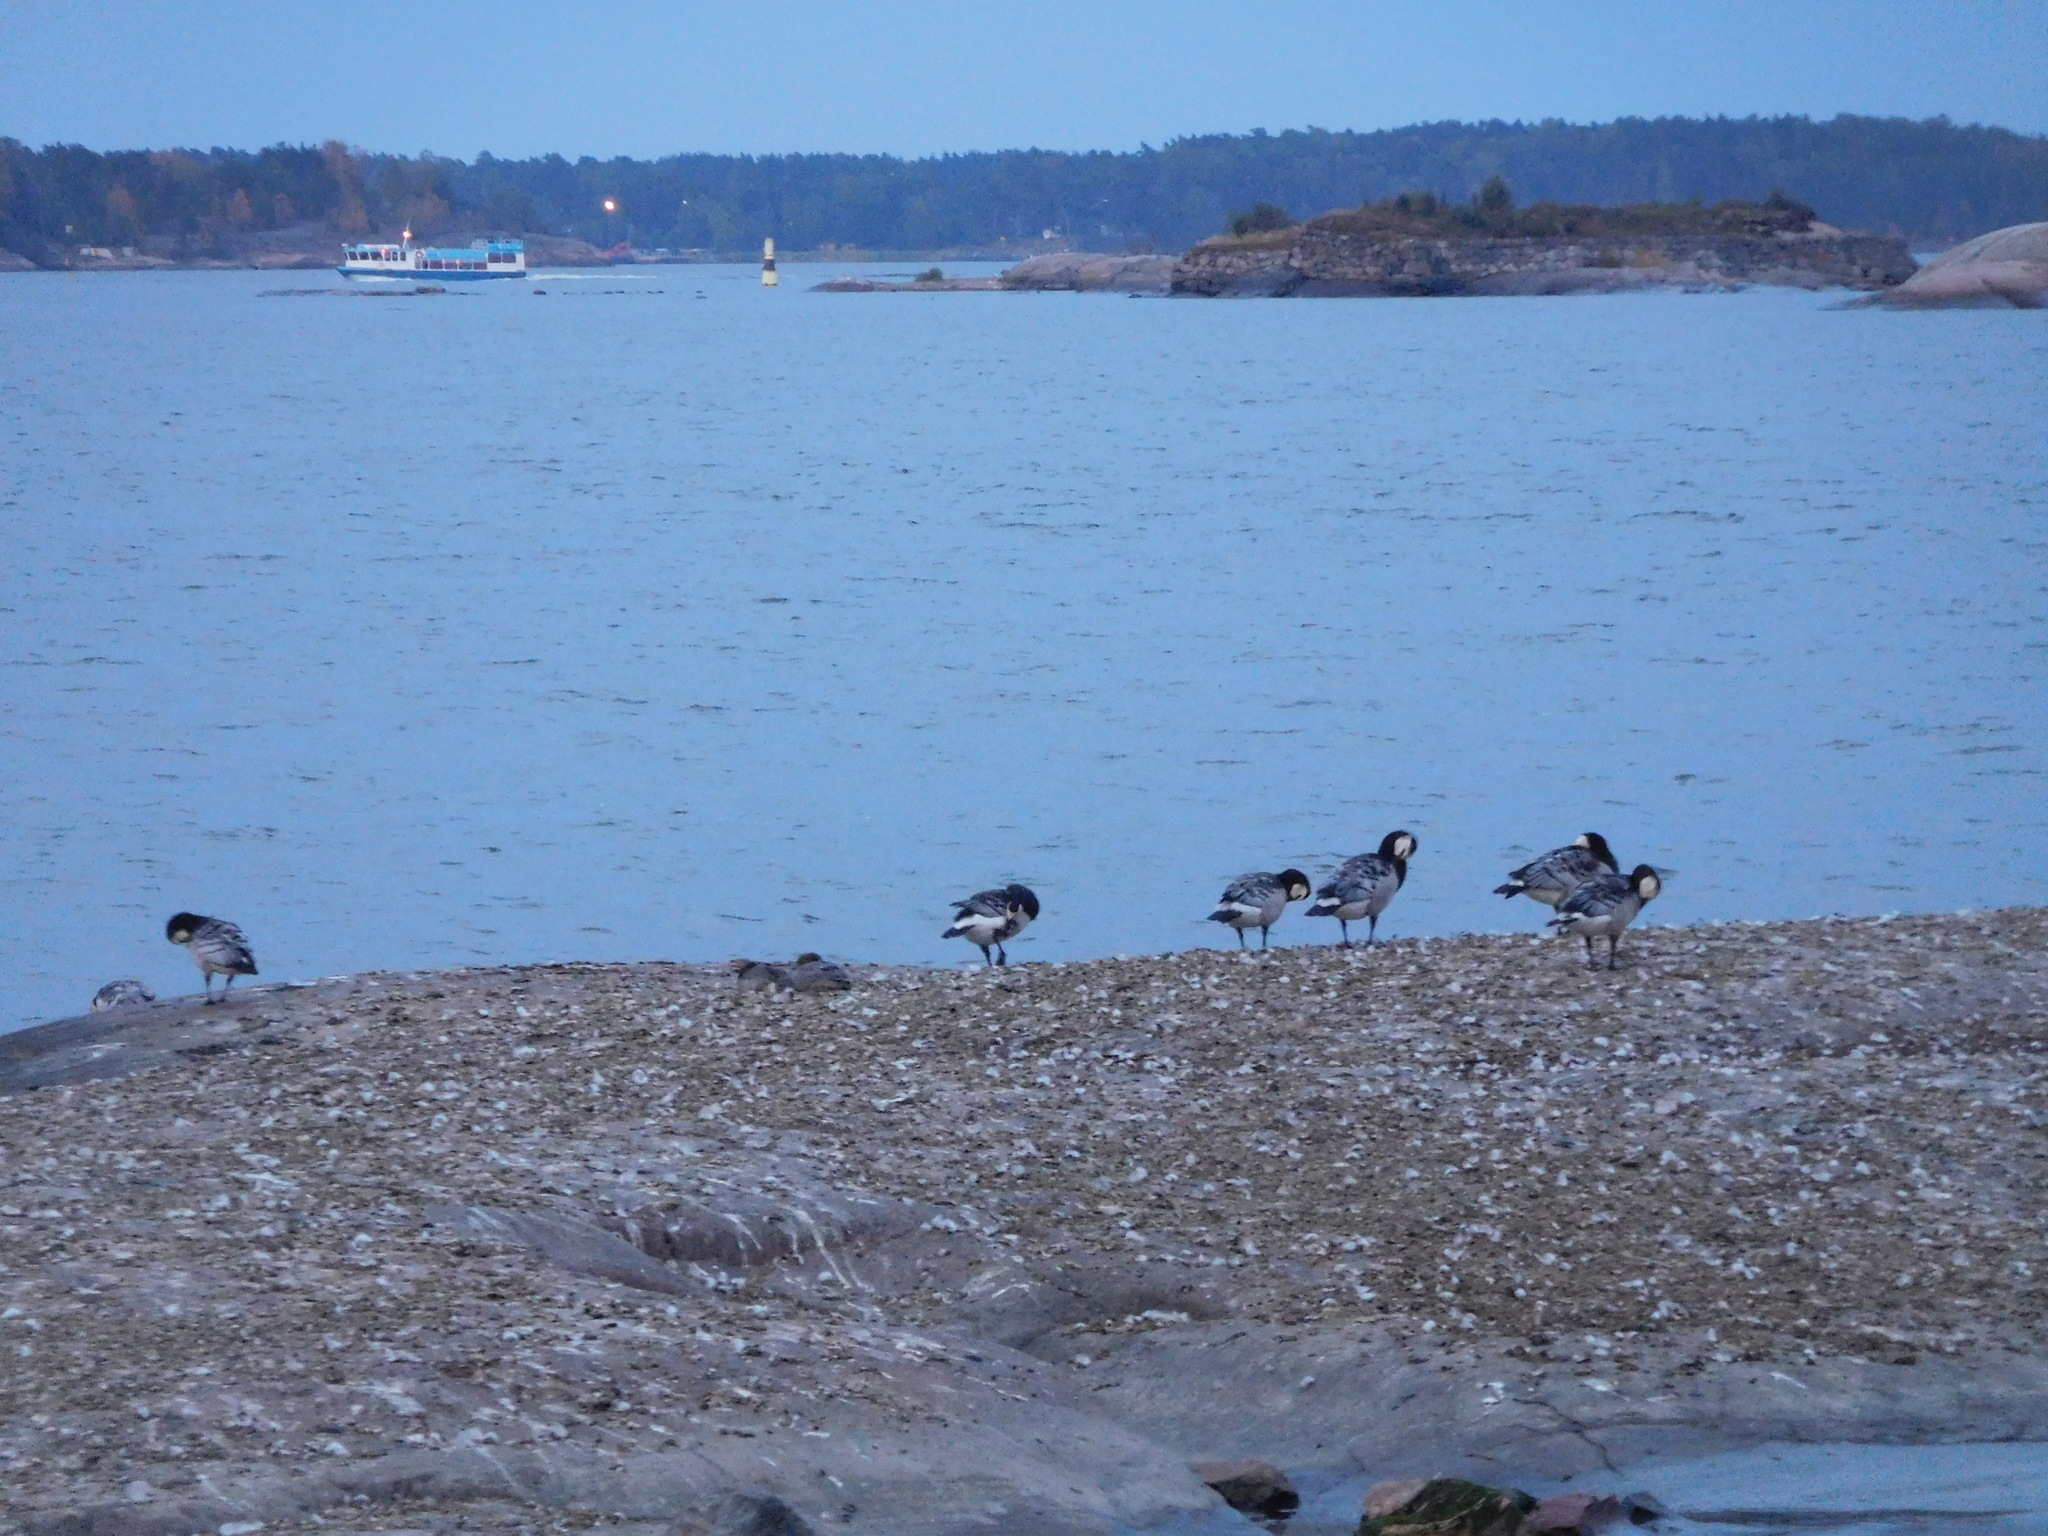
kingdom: Animalia
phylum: Chordata
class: Aves
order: Anseriformes
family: Anatidae
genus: Branta
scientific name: Branta leucopsis
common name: Barnacle goose
